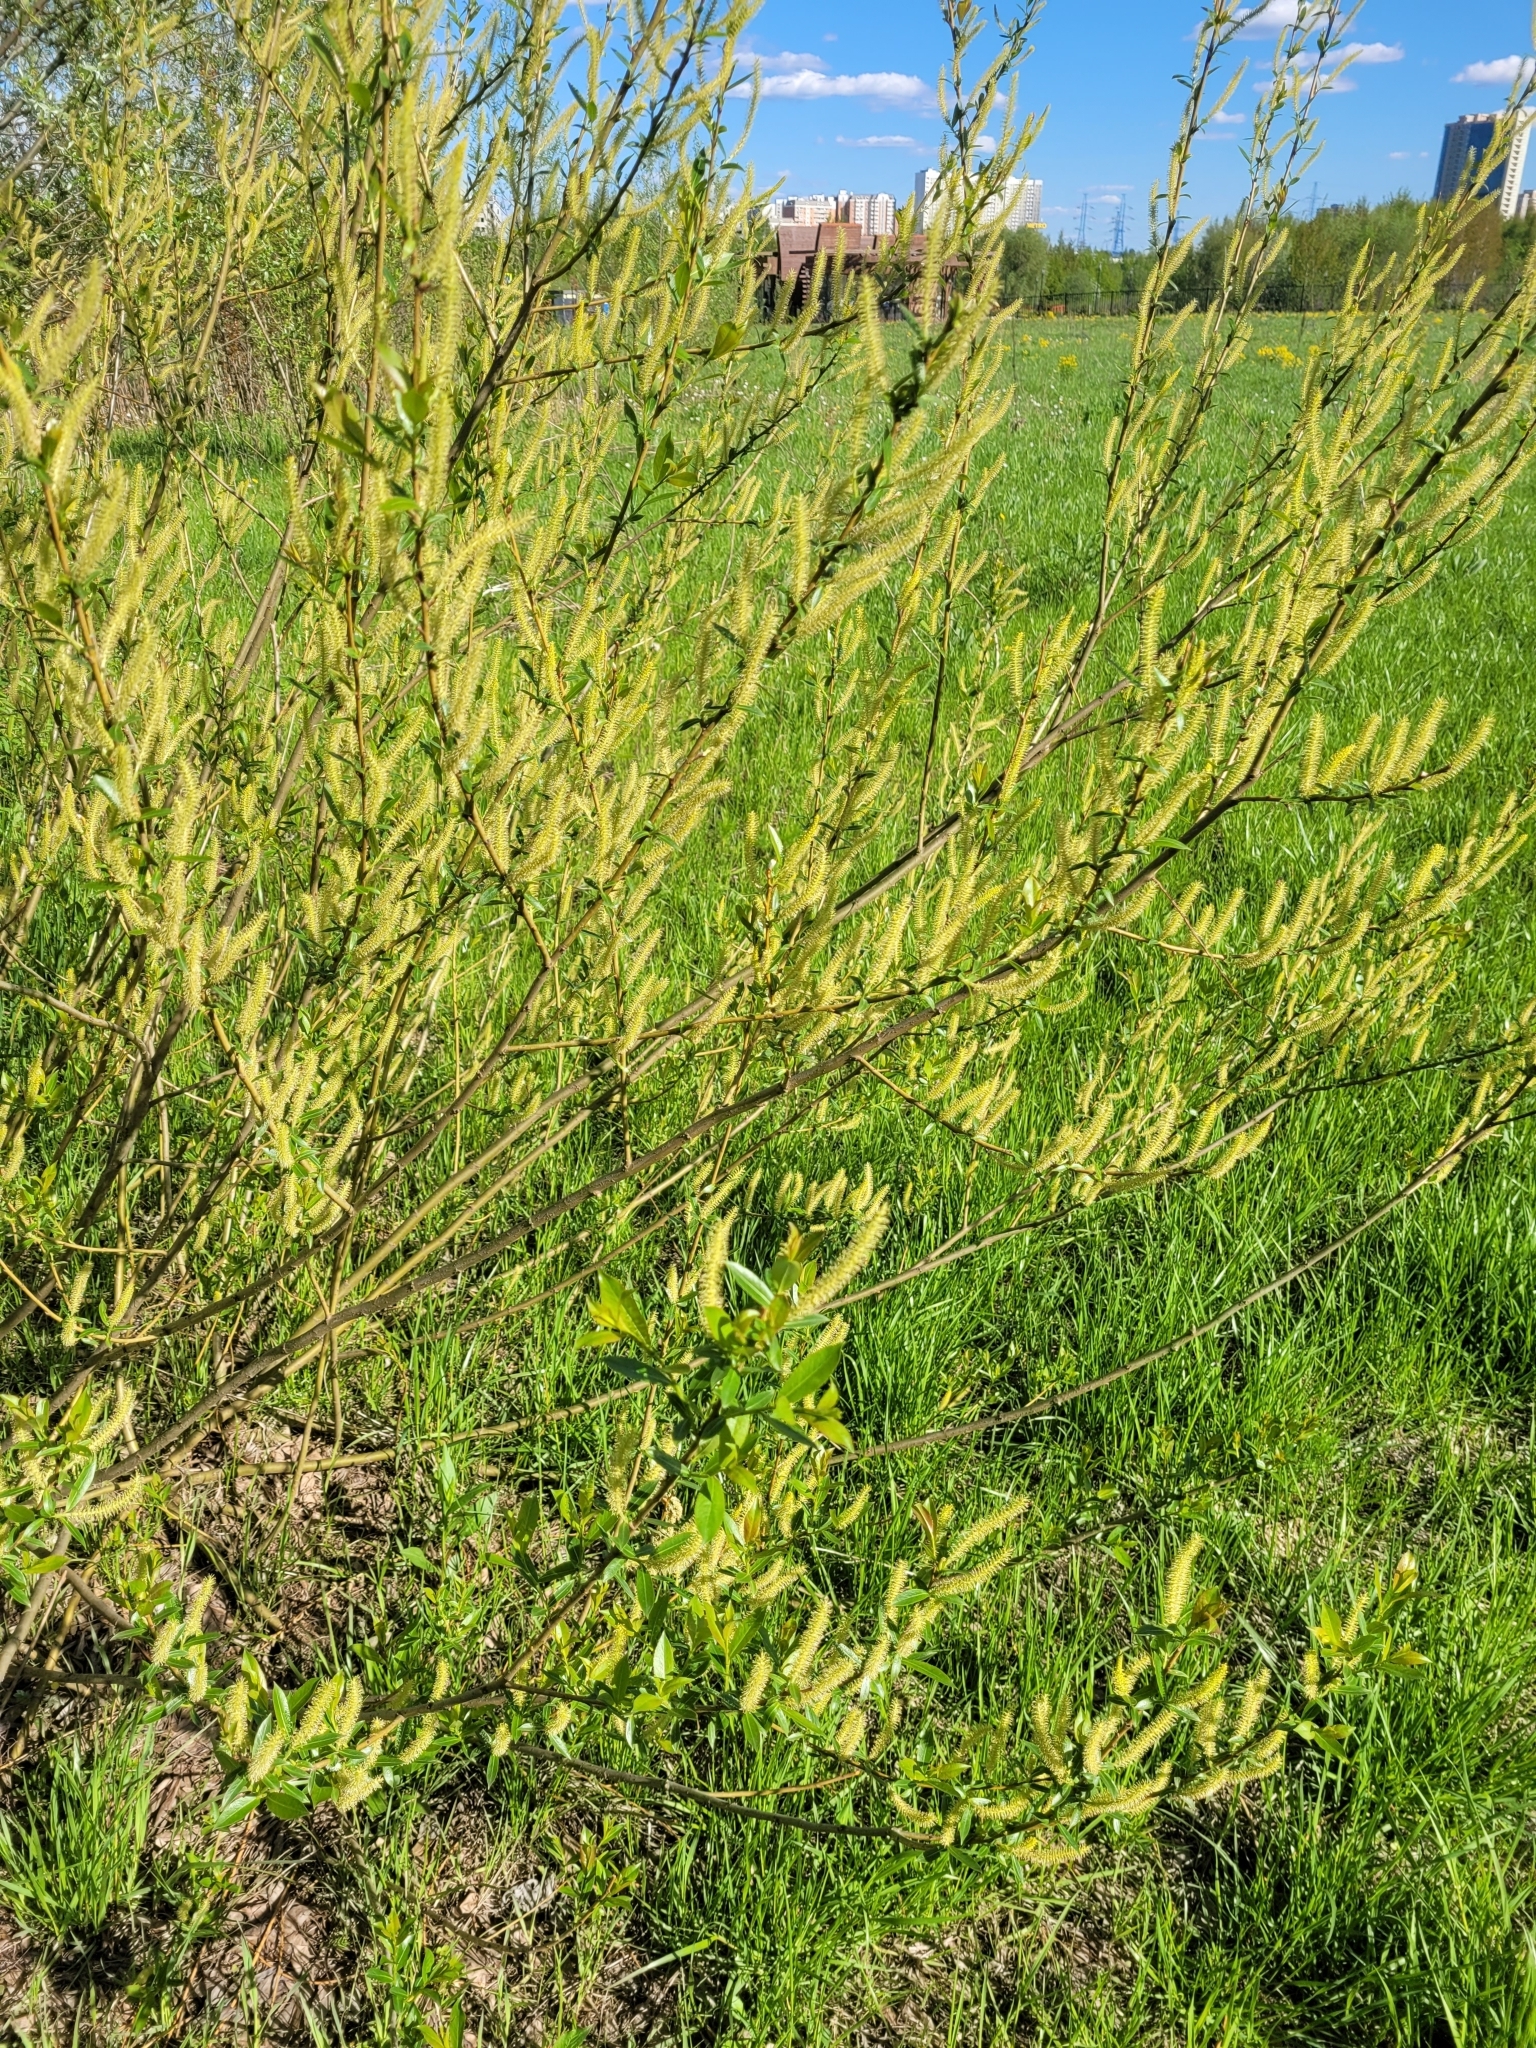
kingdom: Plantae
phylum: Tracheophyta
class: Magnoliopsida
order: Malpighiales
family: Salicaceae
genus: Salix
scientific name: Salix triandra
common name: Almond willow
